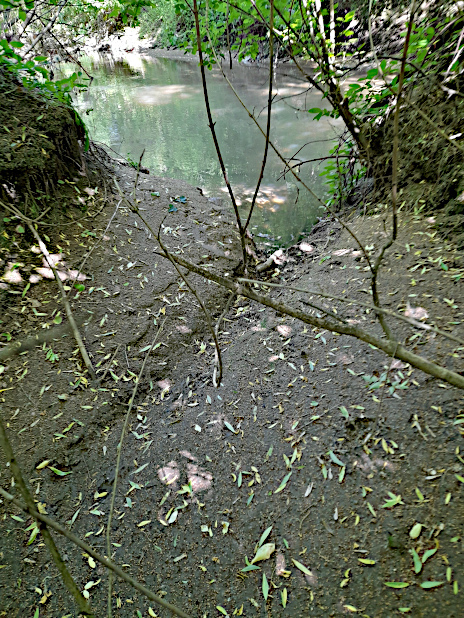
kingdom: Animalia
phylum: Chordata
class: Mammalia
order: Rodentia
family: Castoridae
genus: Castor
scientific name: Castor fiber
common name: Eurasian beaver
